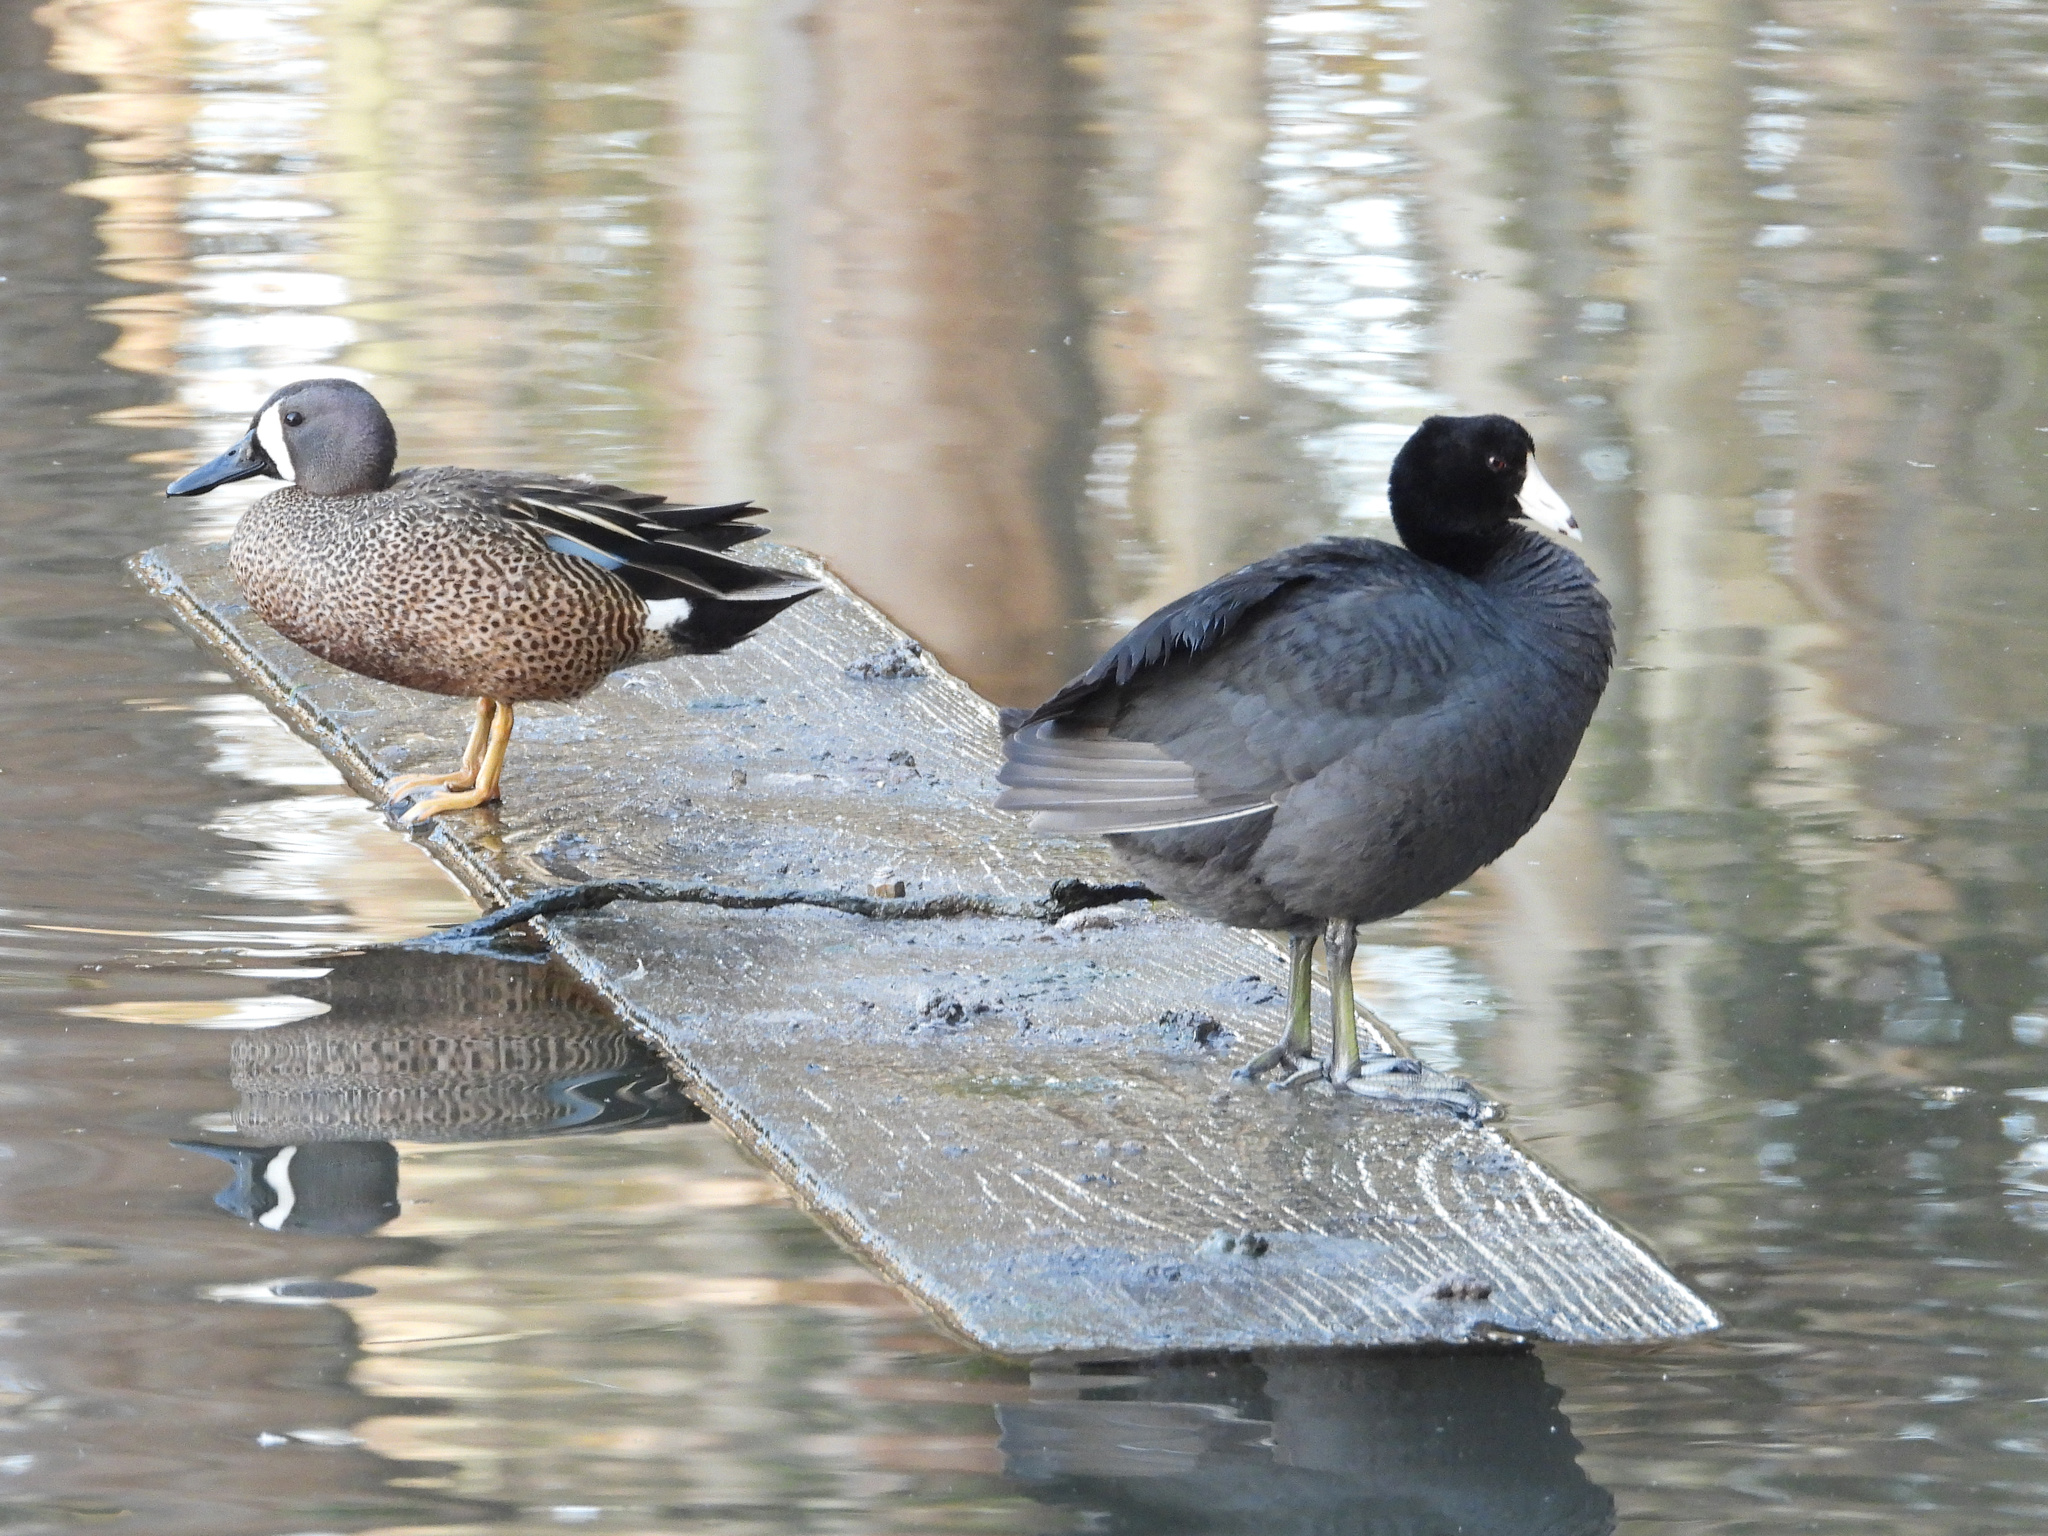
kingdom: Animalia
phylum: Chordata
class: Aves
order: Gruiformes
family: Rallidae
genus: Fulica
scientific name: Fulica americana
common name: American coot
